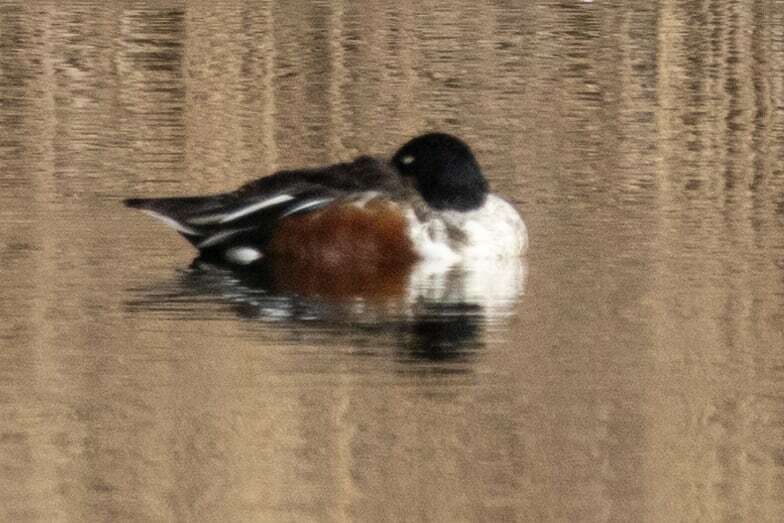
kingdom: Animalia
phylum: Chordata
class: Aves
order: Anseriformes
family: Anatidae
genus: Spatula
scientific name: Spatula clypeata
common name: Northern shoveler
